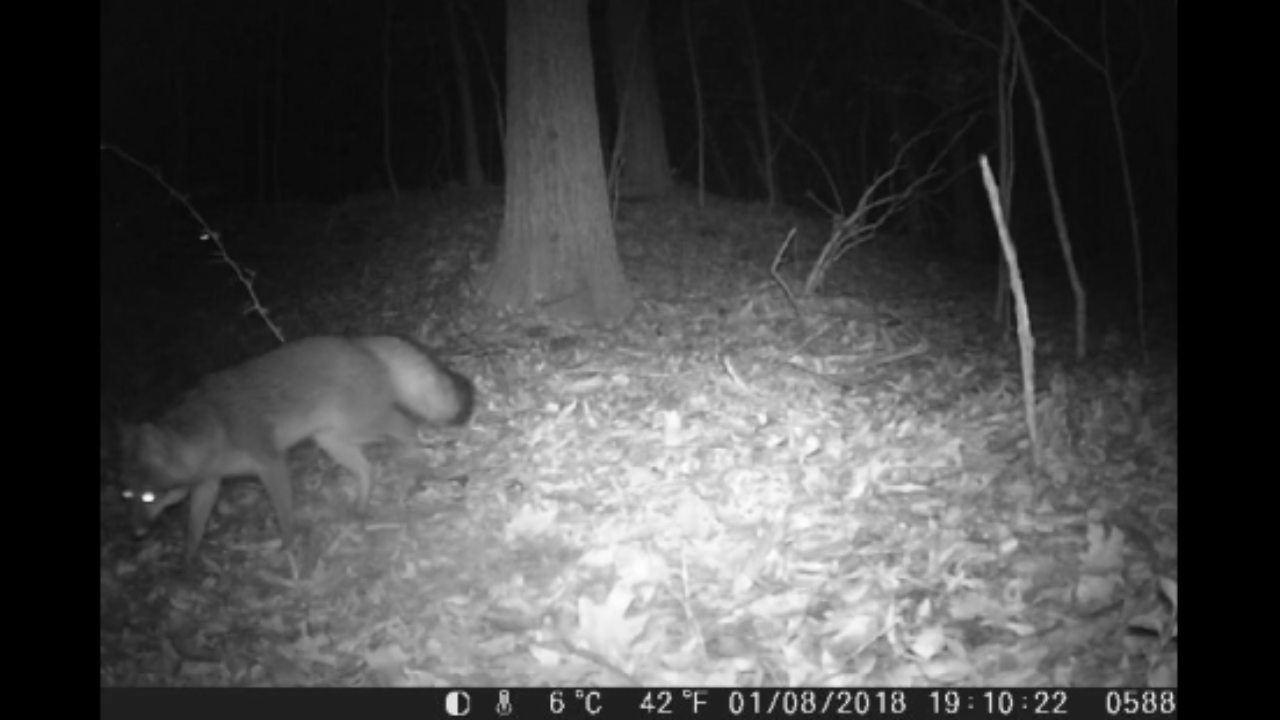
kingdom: Animalia
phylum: Chordata
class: Mammalia
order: Carnivora
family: Canidae
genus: Urocyon
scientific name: Urocyon cinereoargenteus
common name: Gray fox
